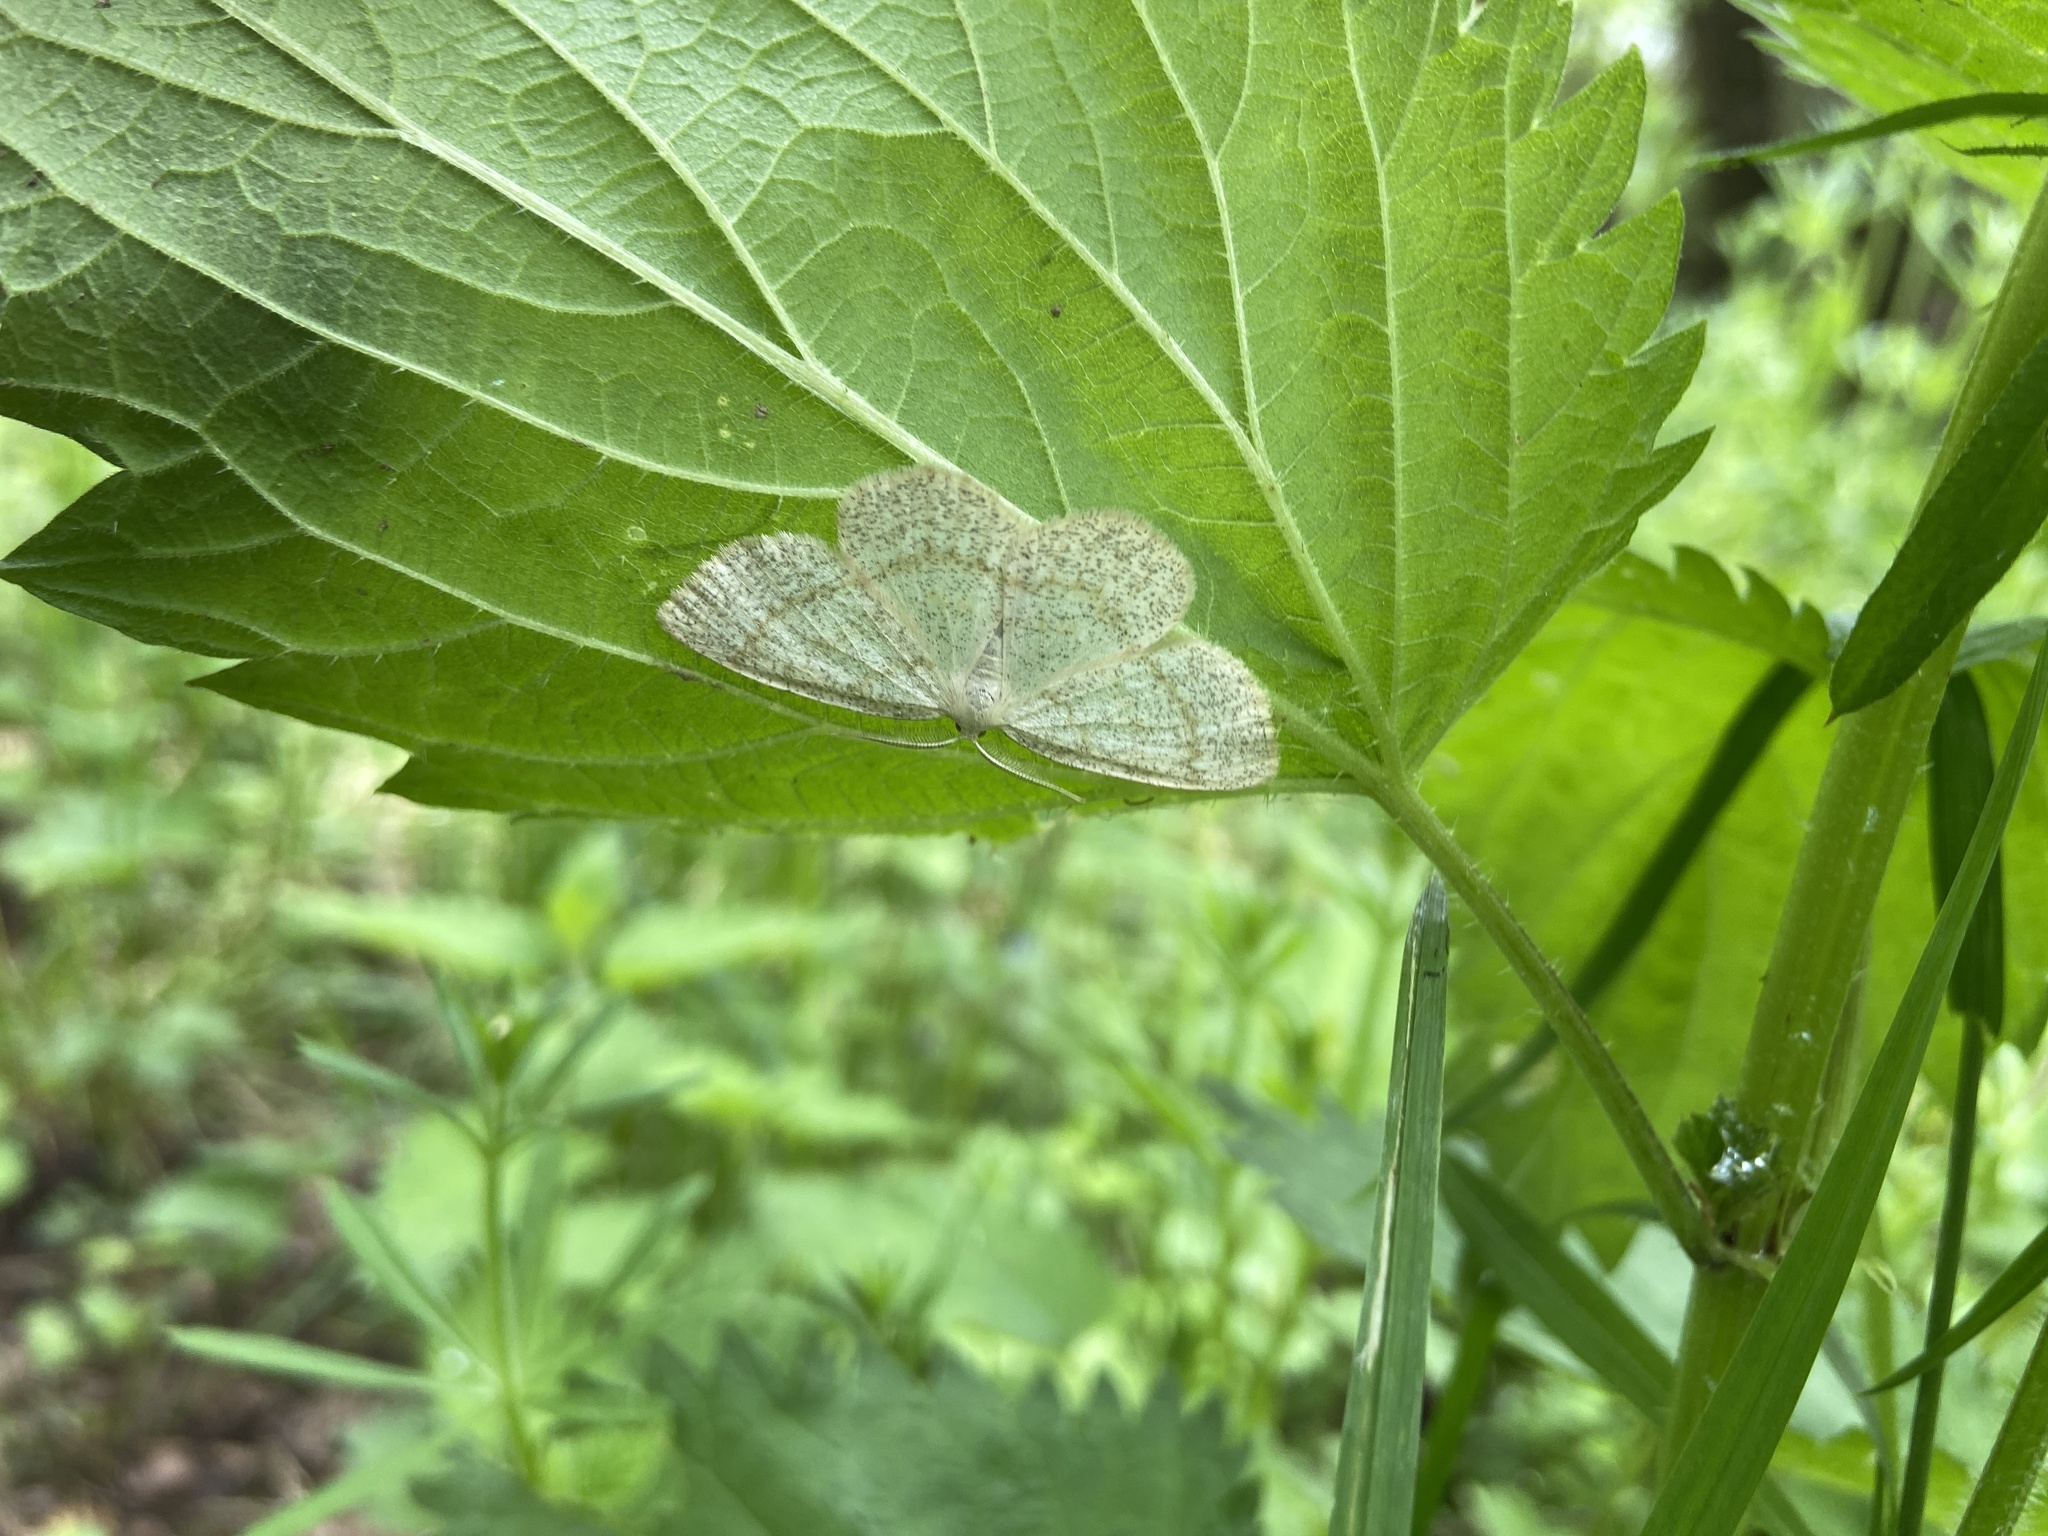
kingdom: Animalia
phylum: Arthropoda
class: Insecta
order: Lepidoptera
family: Geometridae
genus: Cabera
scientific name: Cabera exanthemata
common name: Common wave
